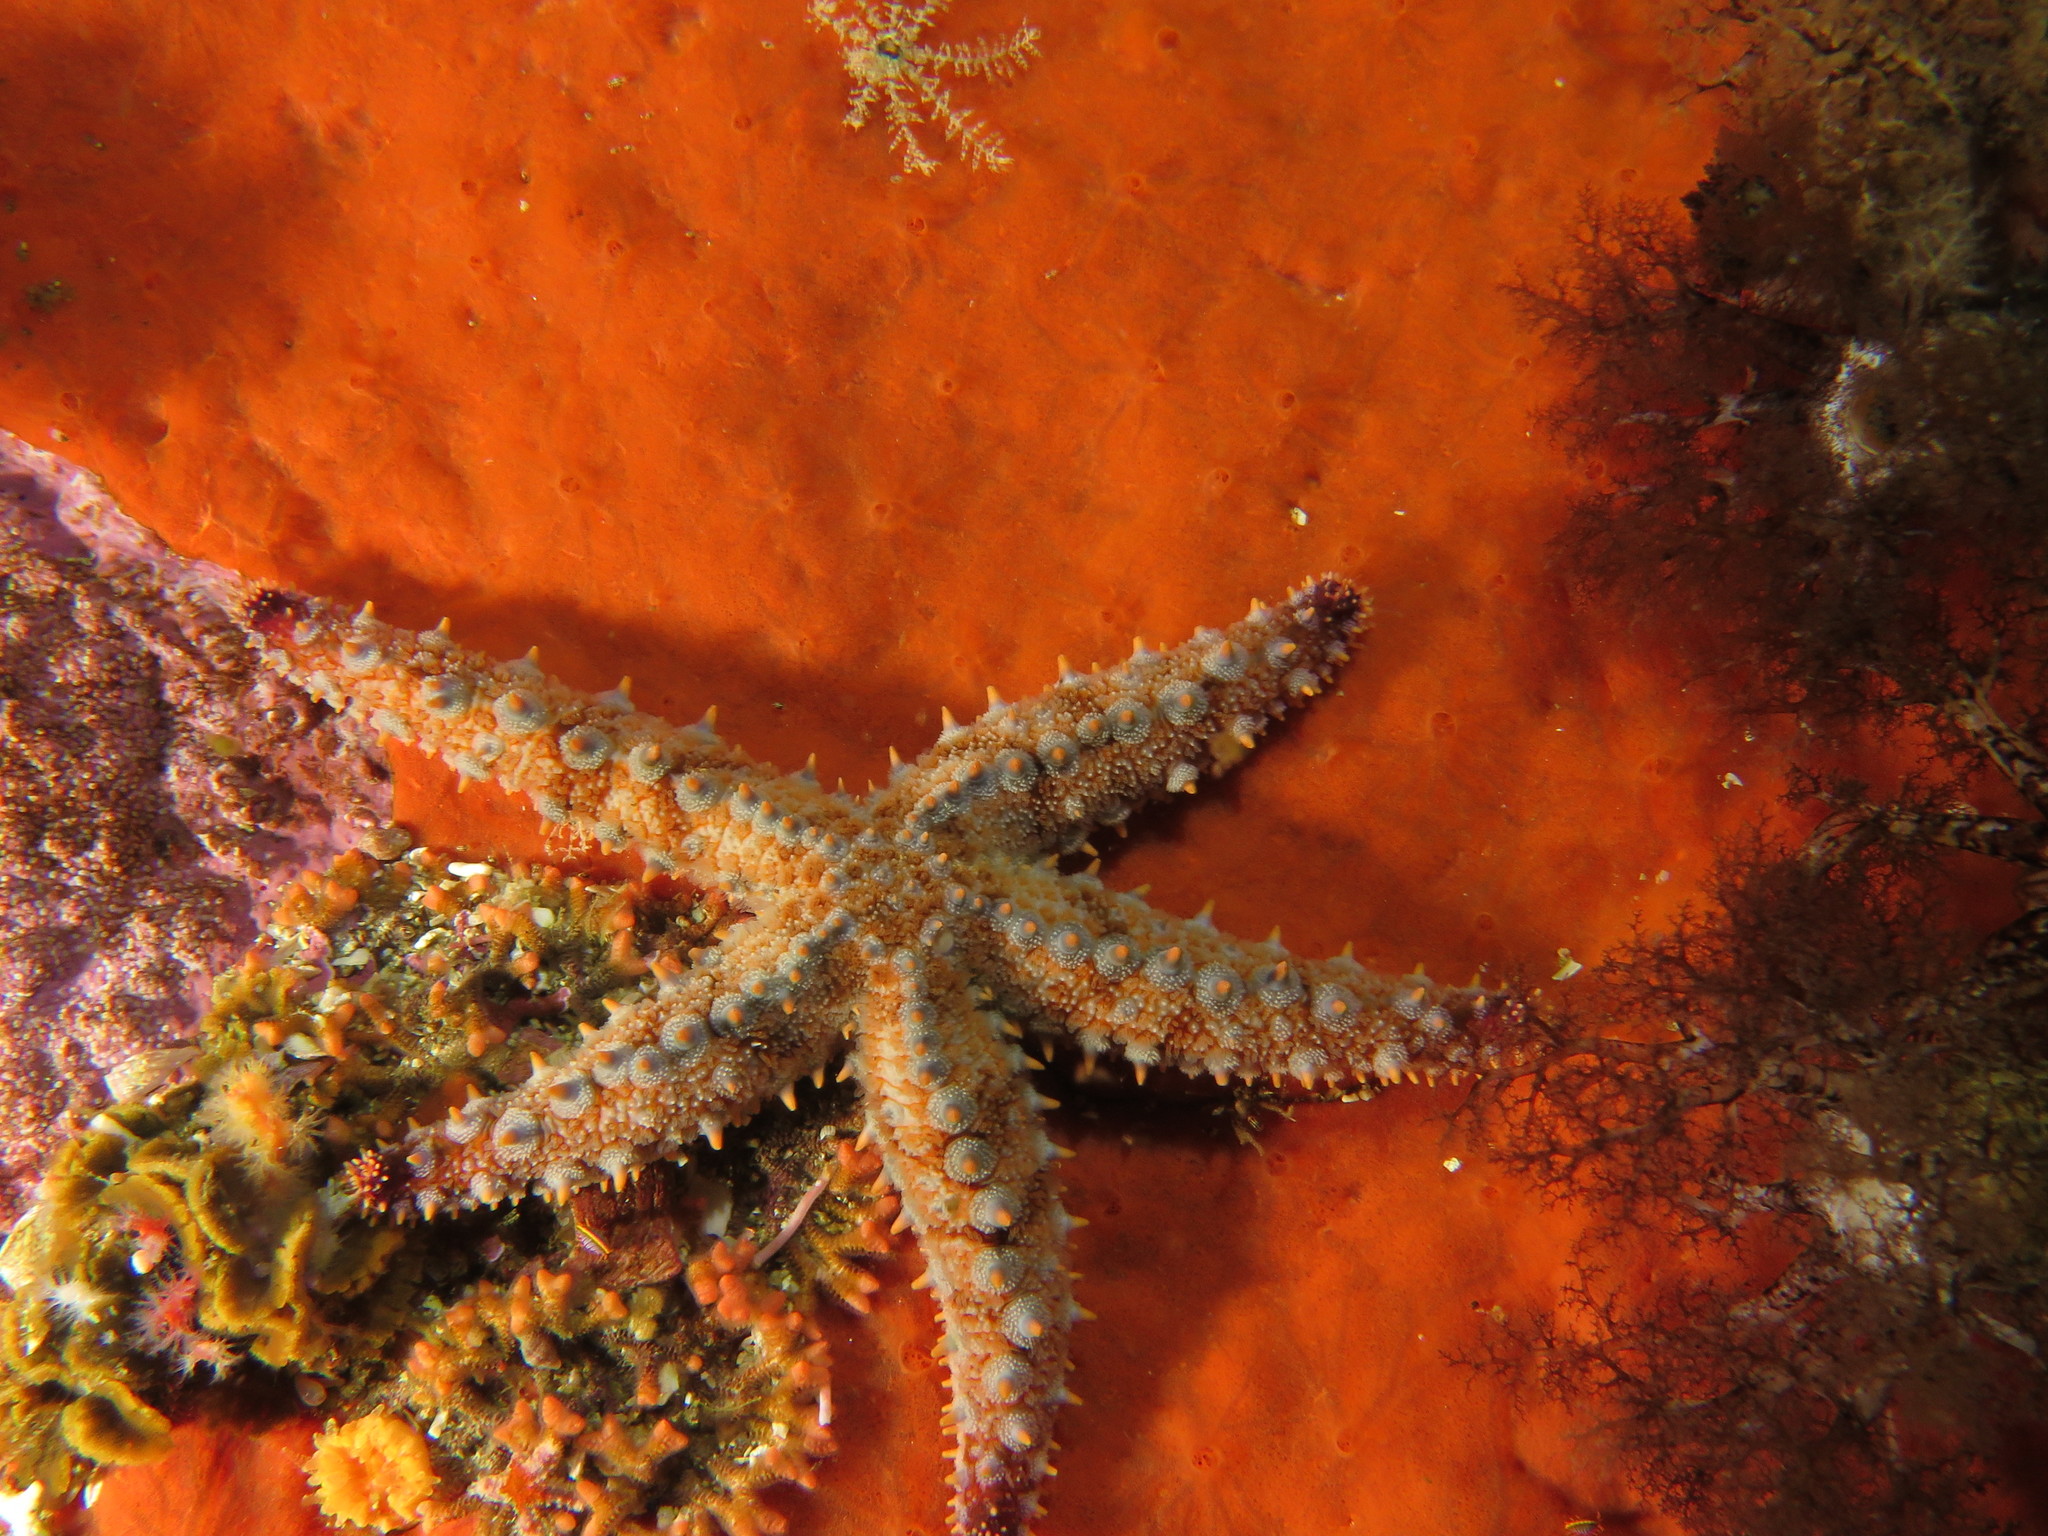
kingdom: Animalia
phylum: Echinodermata
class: Asteroidea
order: Forcipulatida
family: Asteriidae
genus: Marthasterias
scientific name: Marthasterias africana
